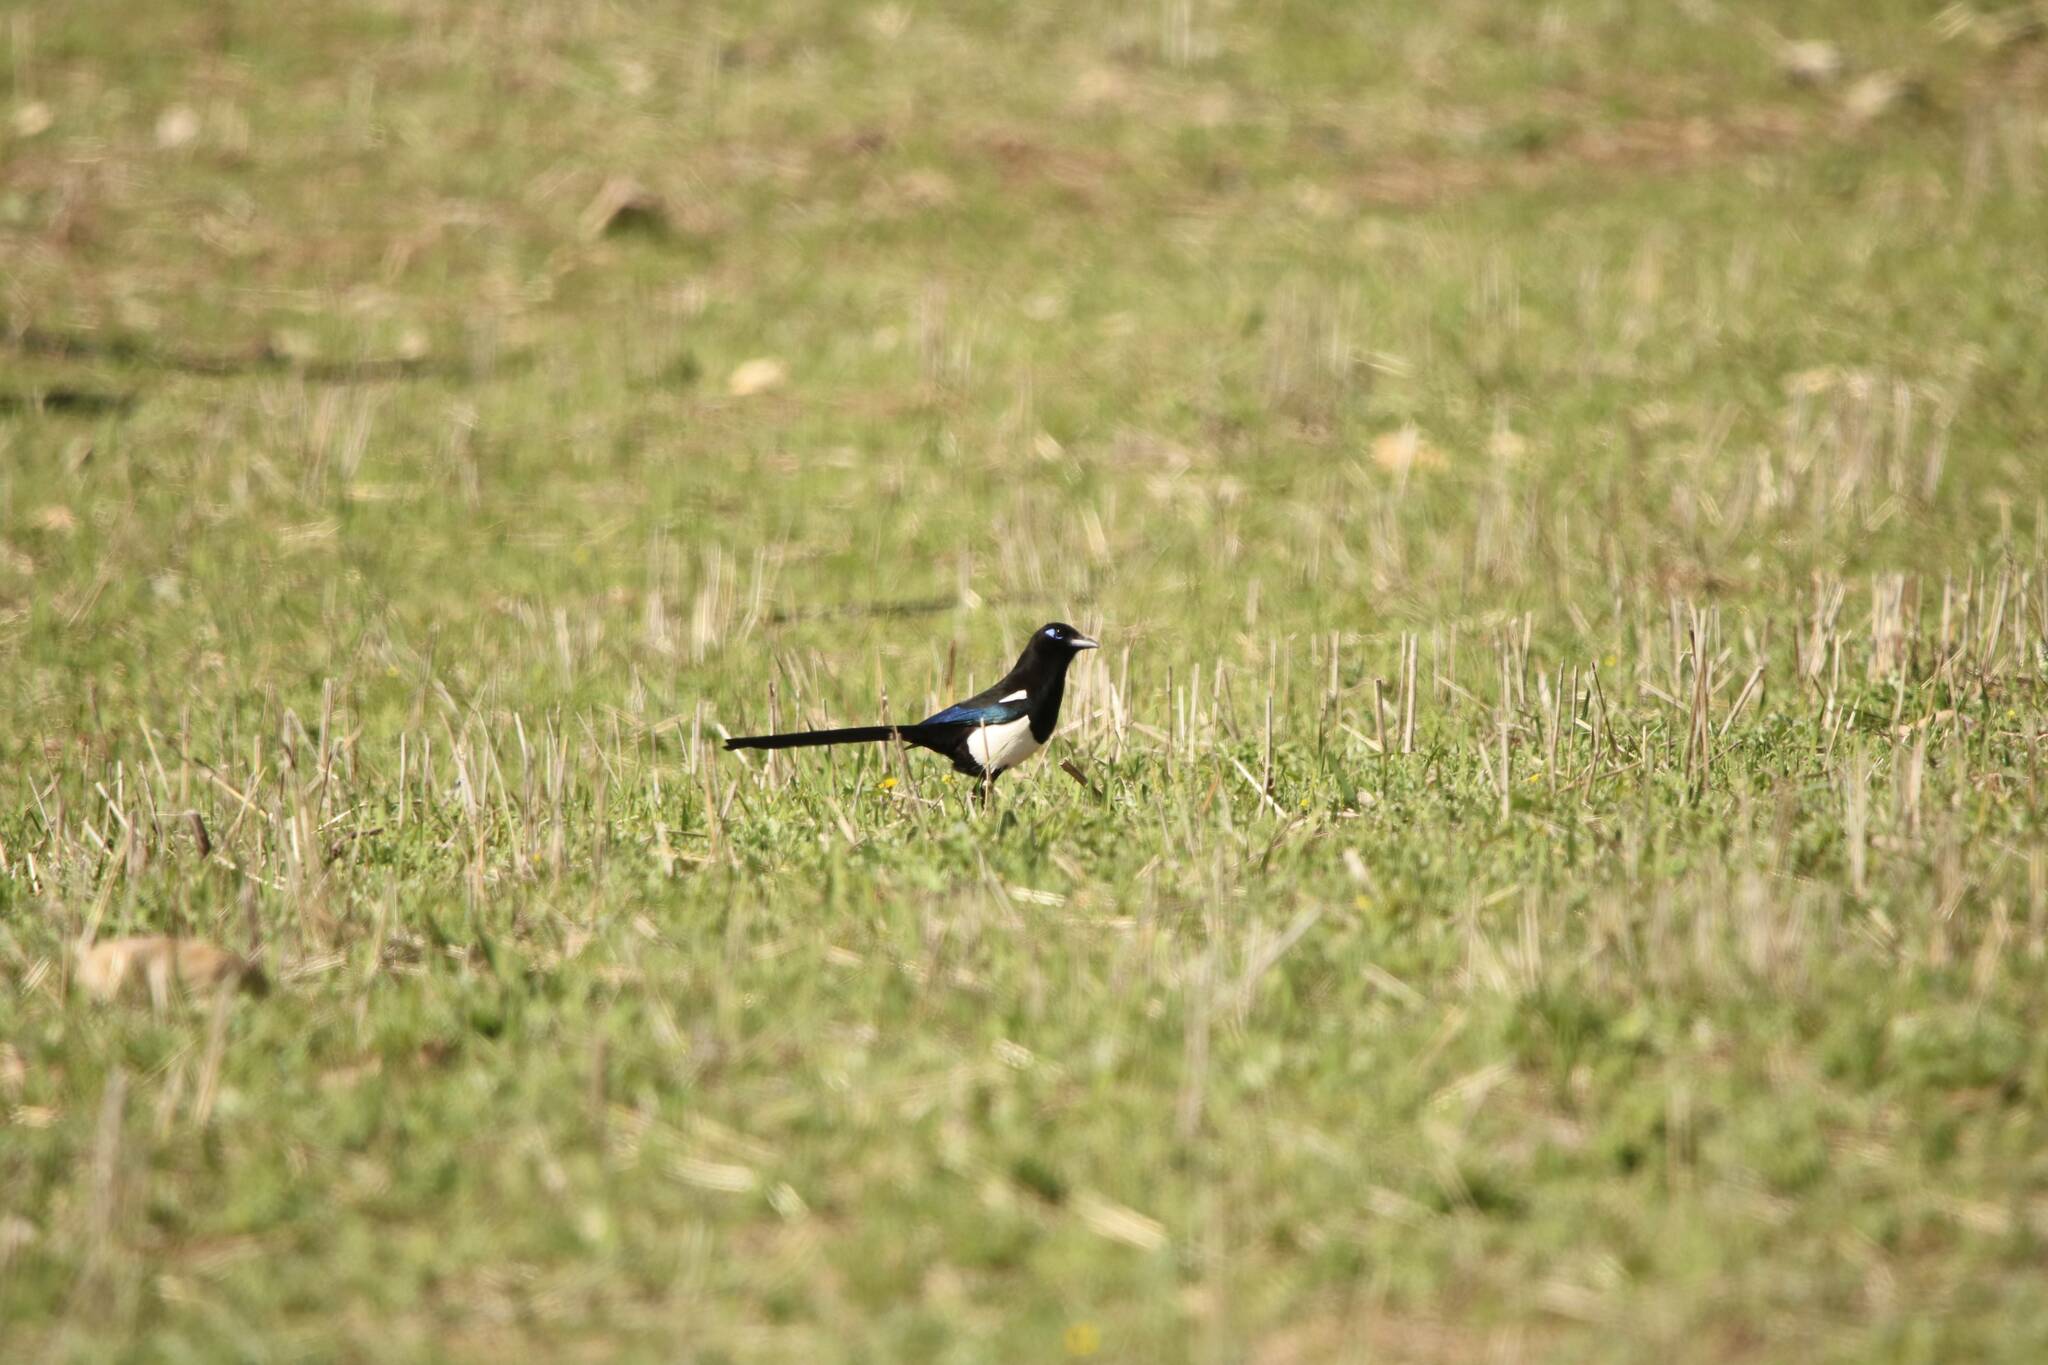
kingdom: Animalia
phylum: Chordata
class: Aves
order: Passeriformes
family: Corvidae
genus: Pica
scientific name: Pica mauritanica
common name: Maghreb magpie
